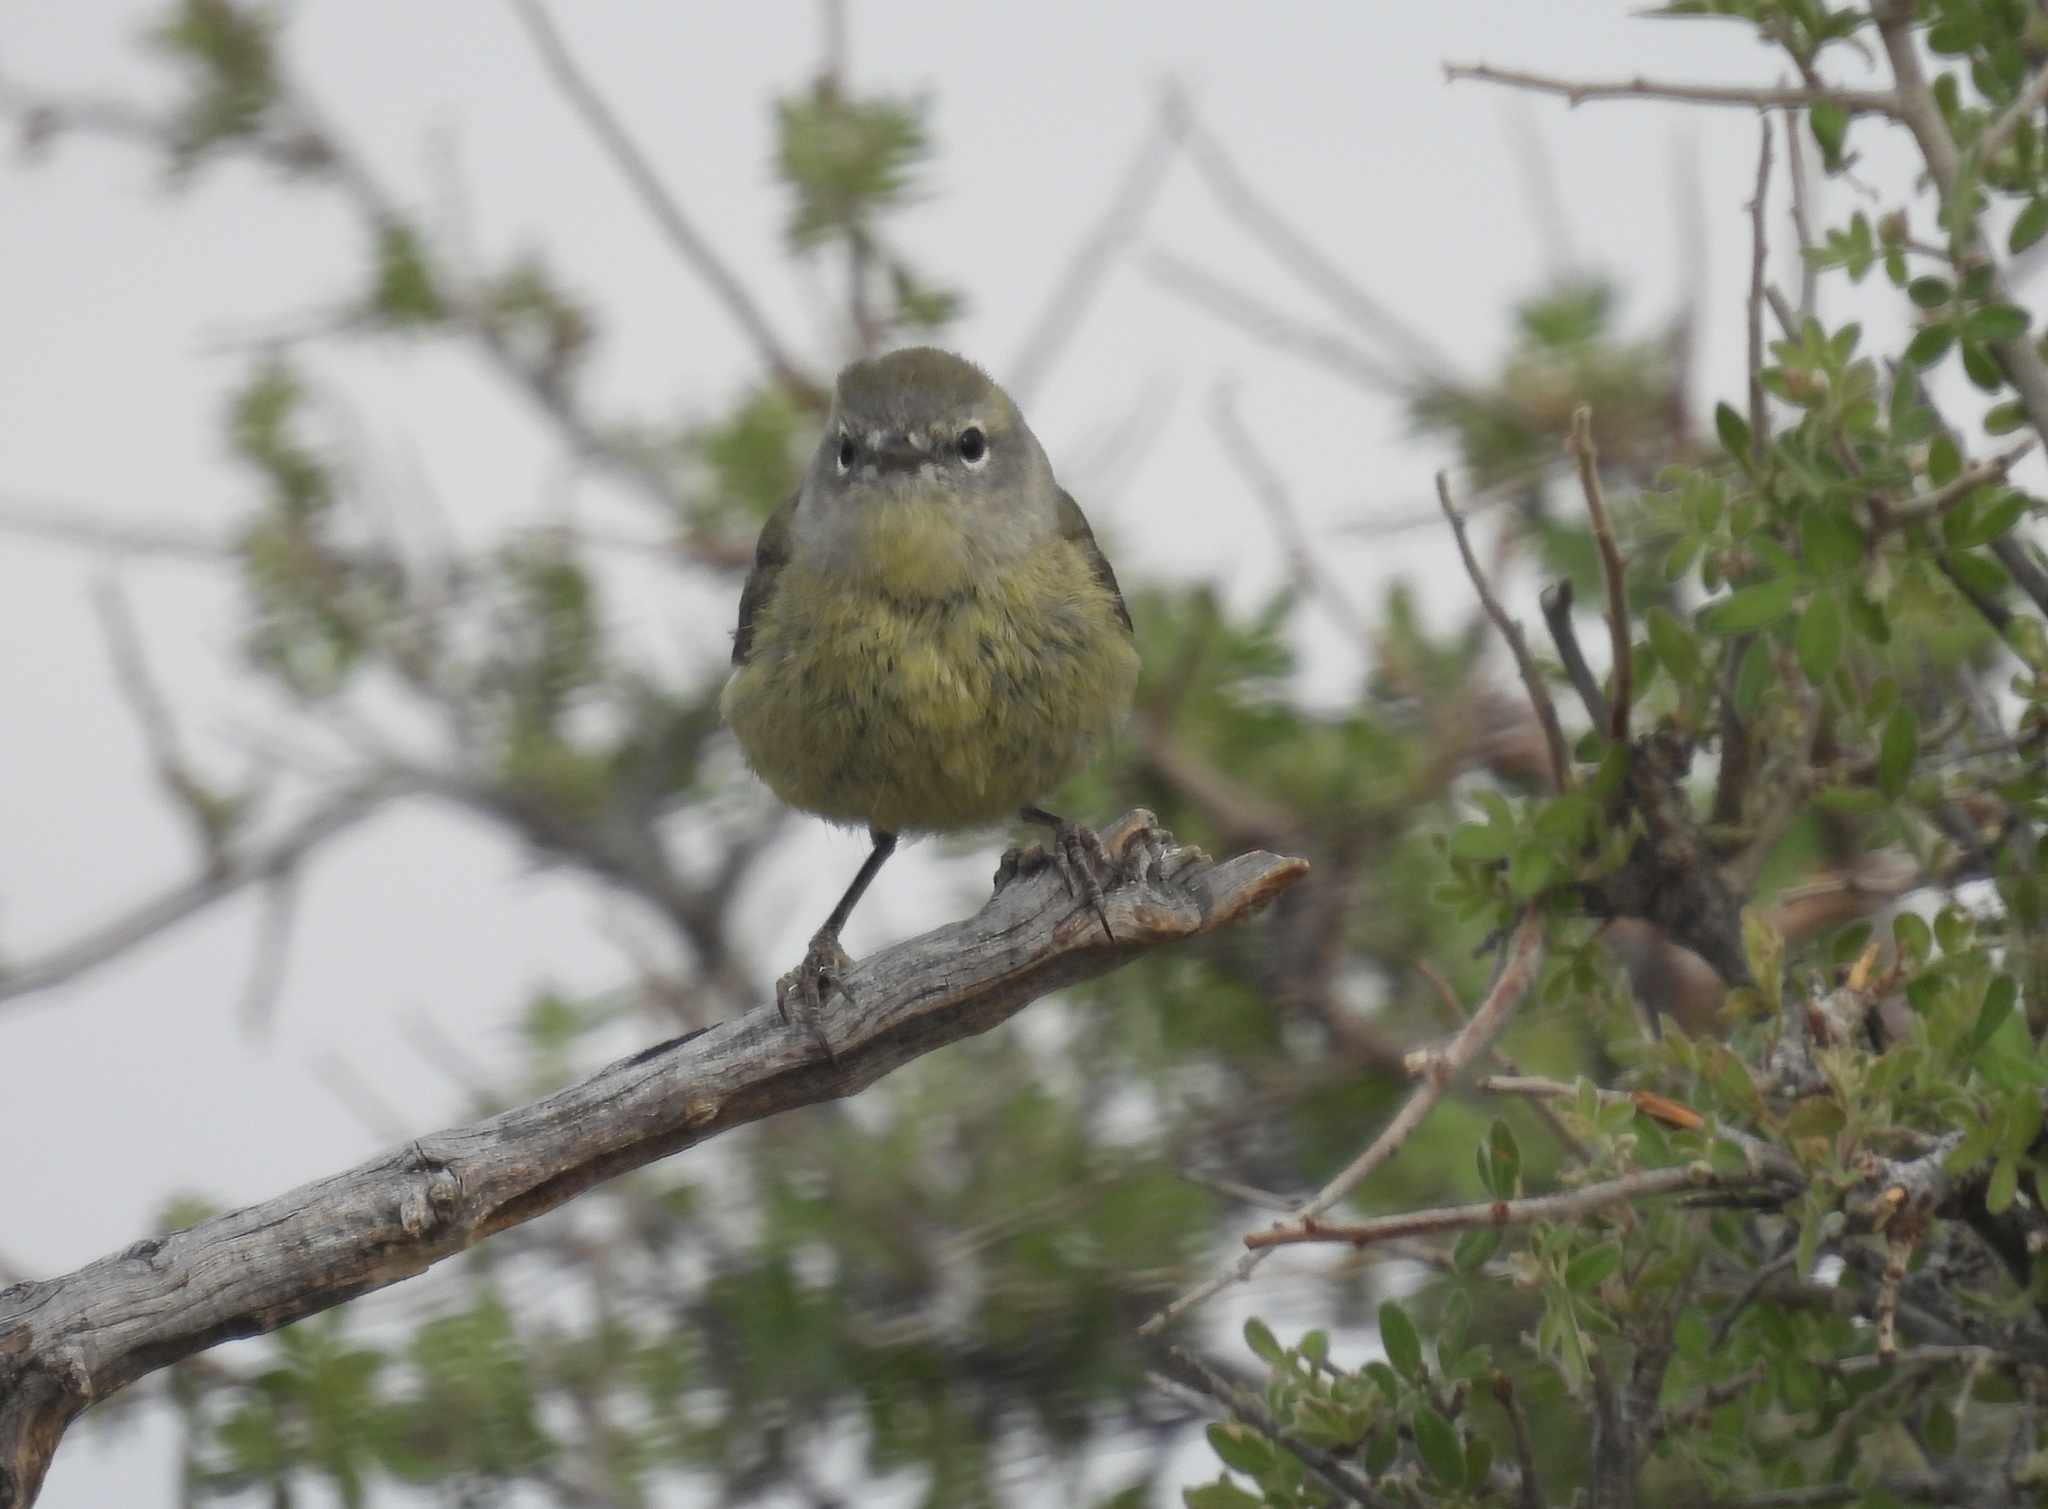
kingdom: Animalia
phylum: Chordata
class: Aves
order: Passeriformes
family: Parulidae
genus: Leiothlypis
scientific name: Leiothlypis celata
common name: Orange-crowned warbler
